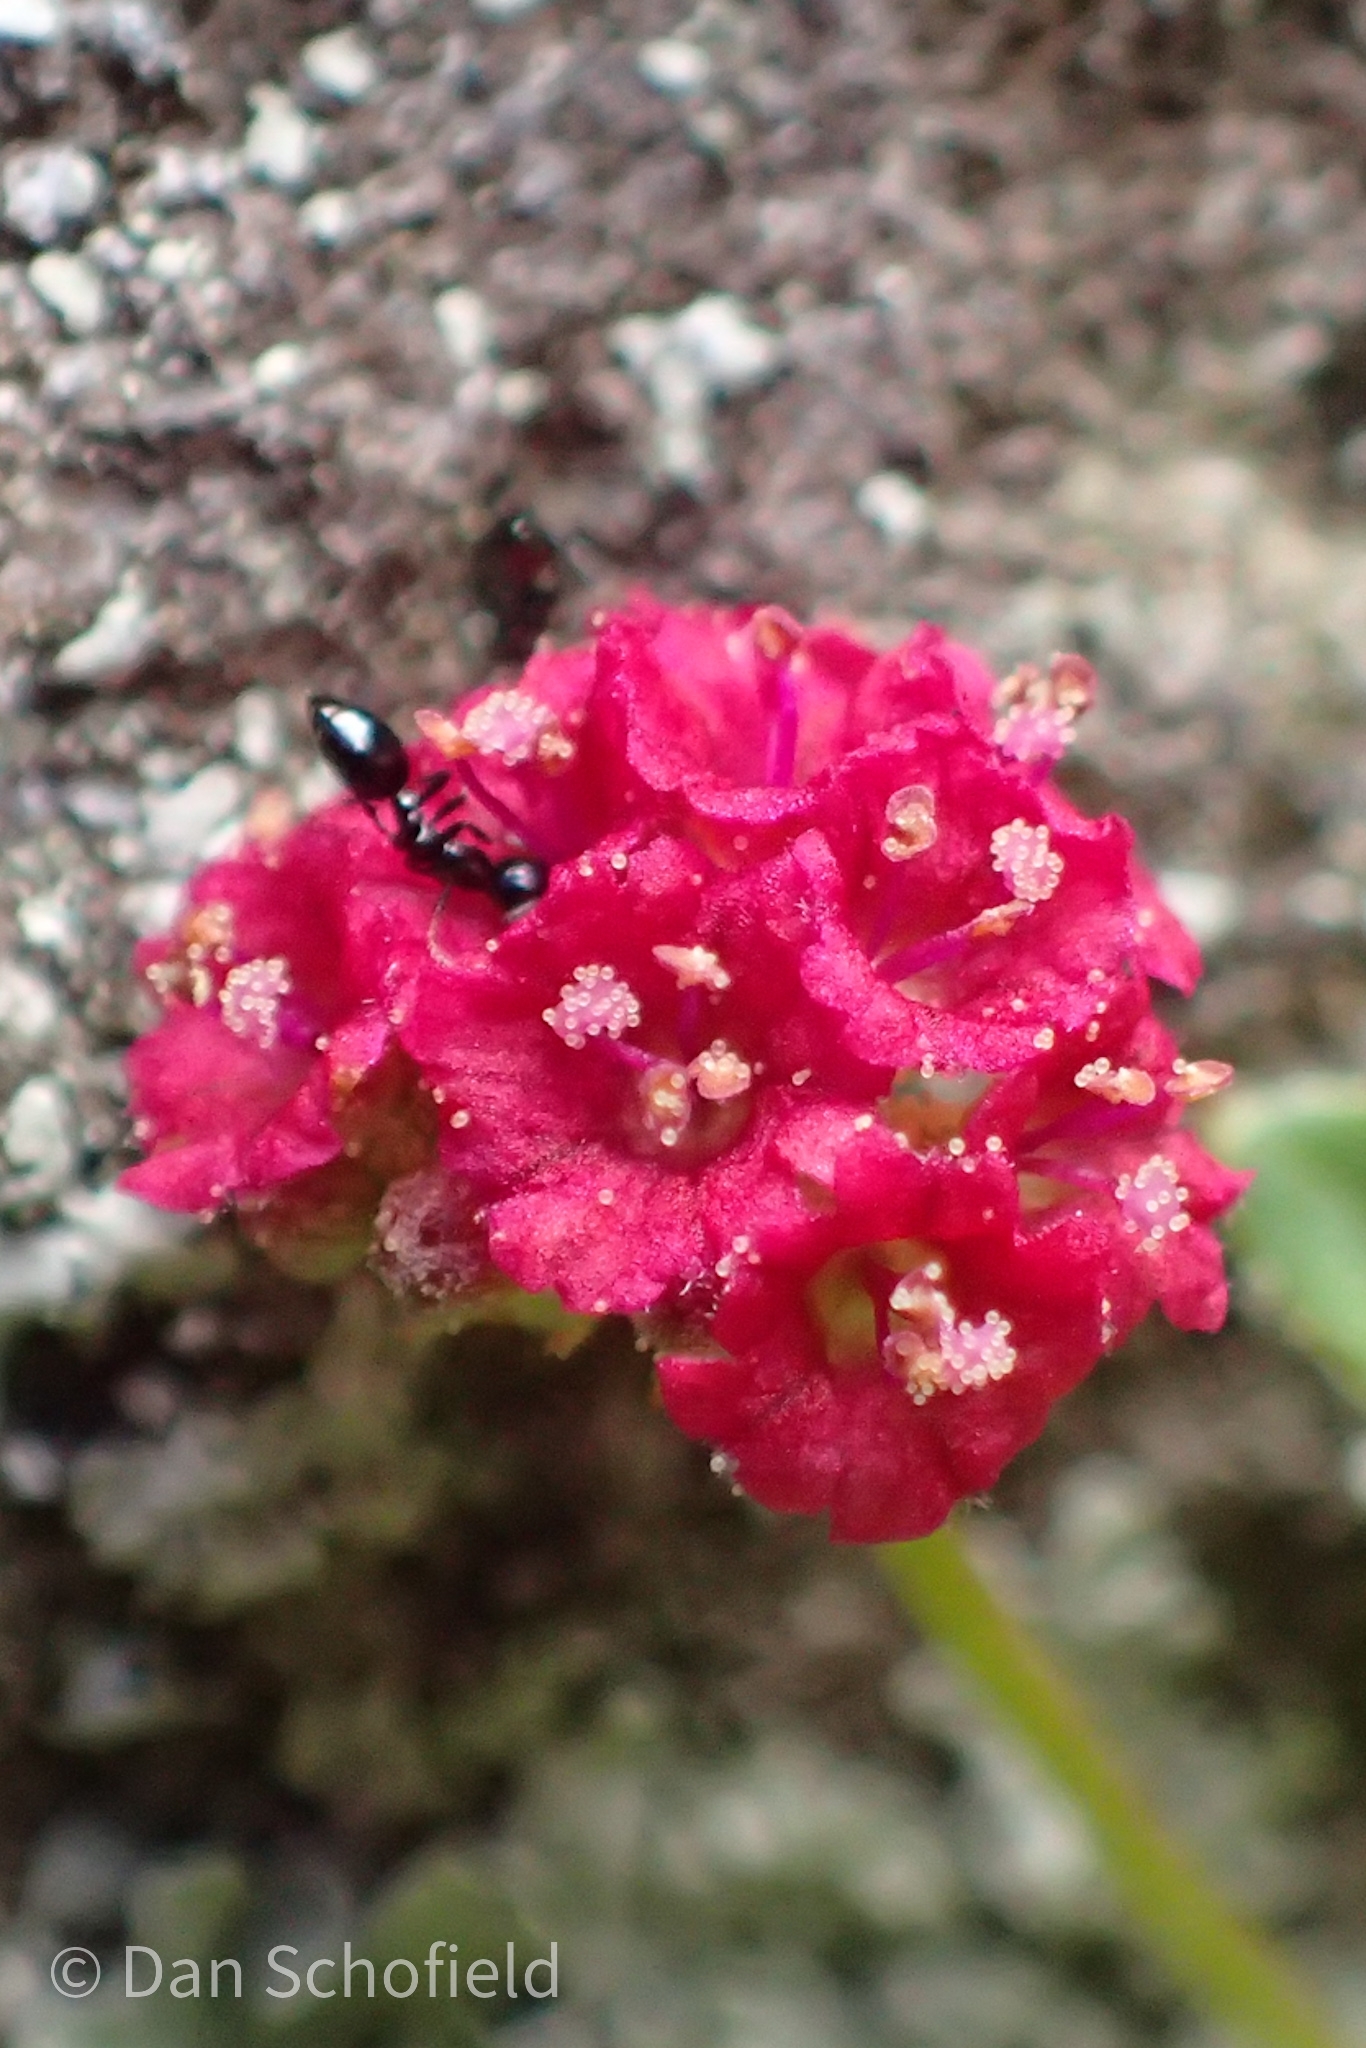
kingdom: Plantae
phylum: Tracheophyta
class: Magnoliopsida
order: Caryophyllales
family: Nyctaginaceae
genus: Boerhavia
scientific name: Boerhavia coccinea
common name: Scarlet spiderling
